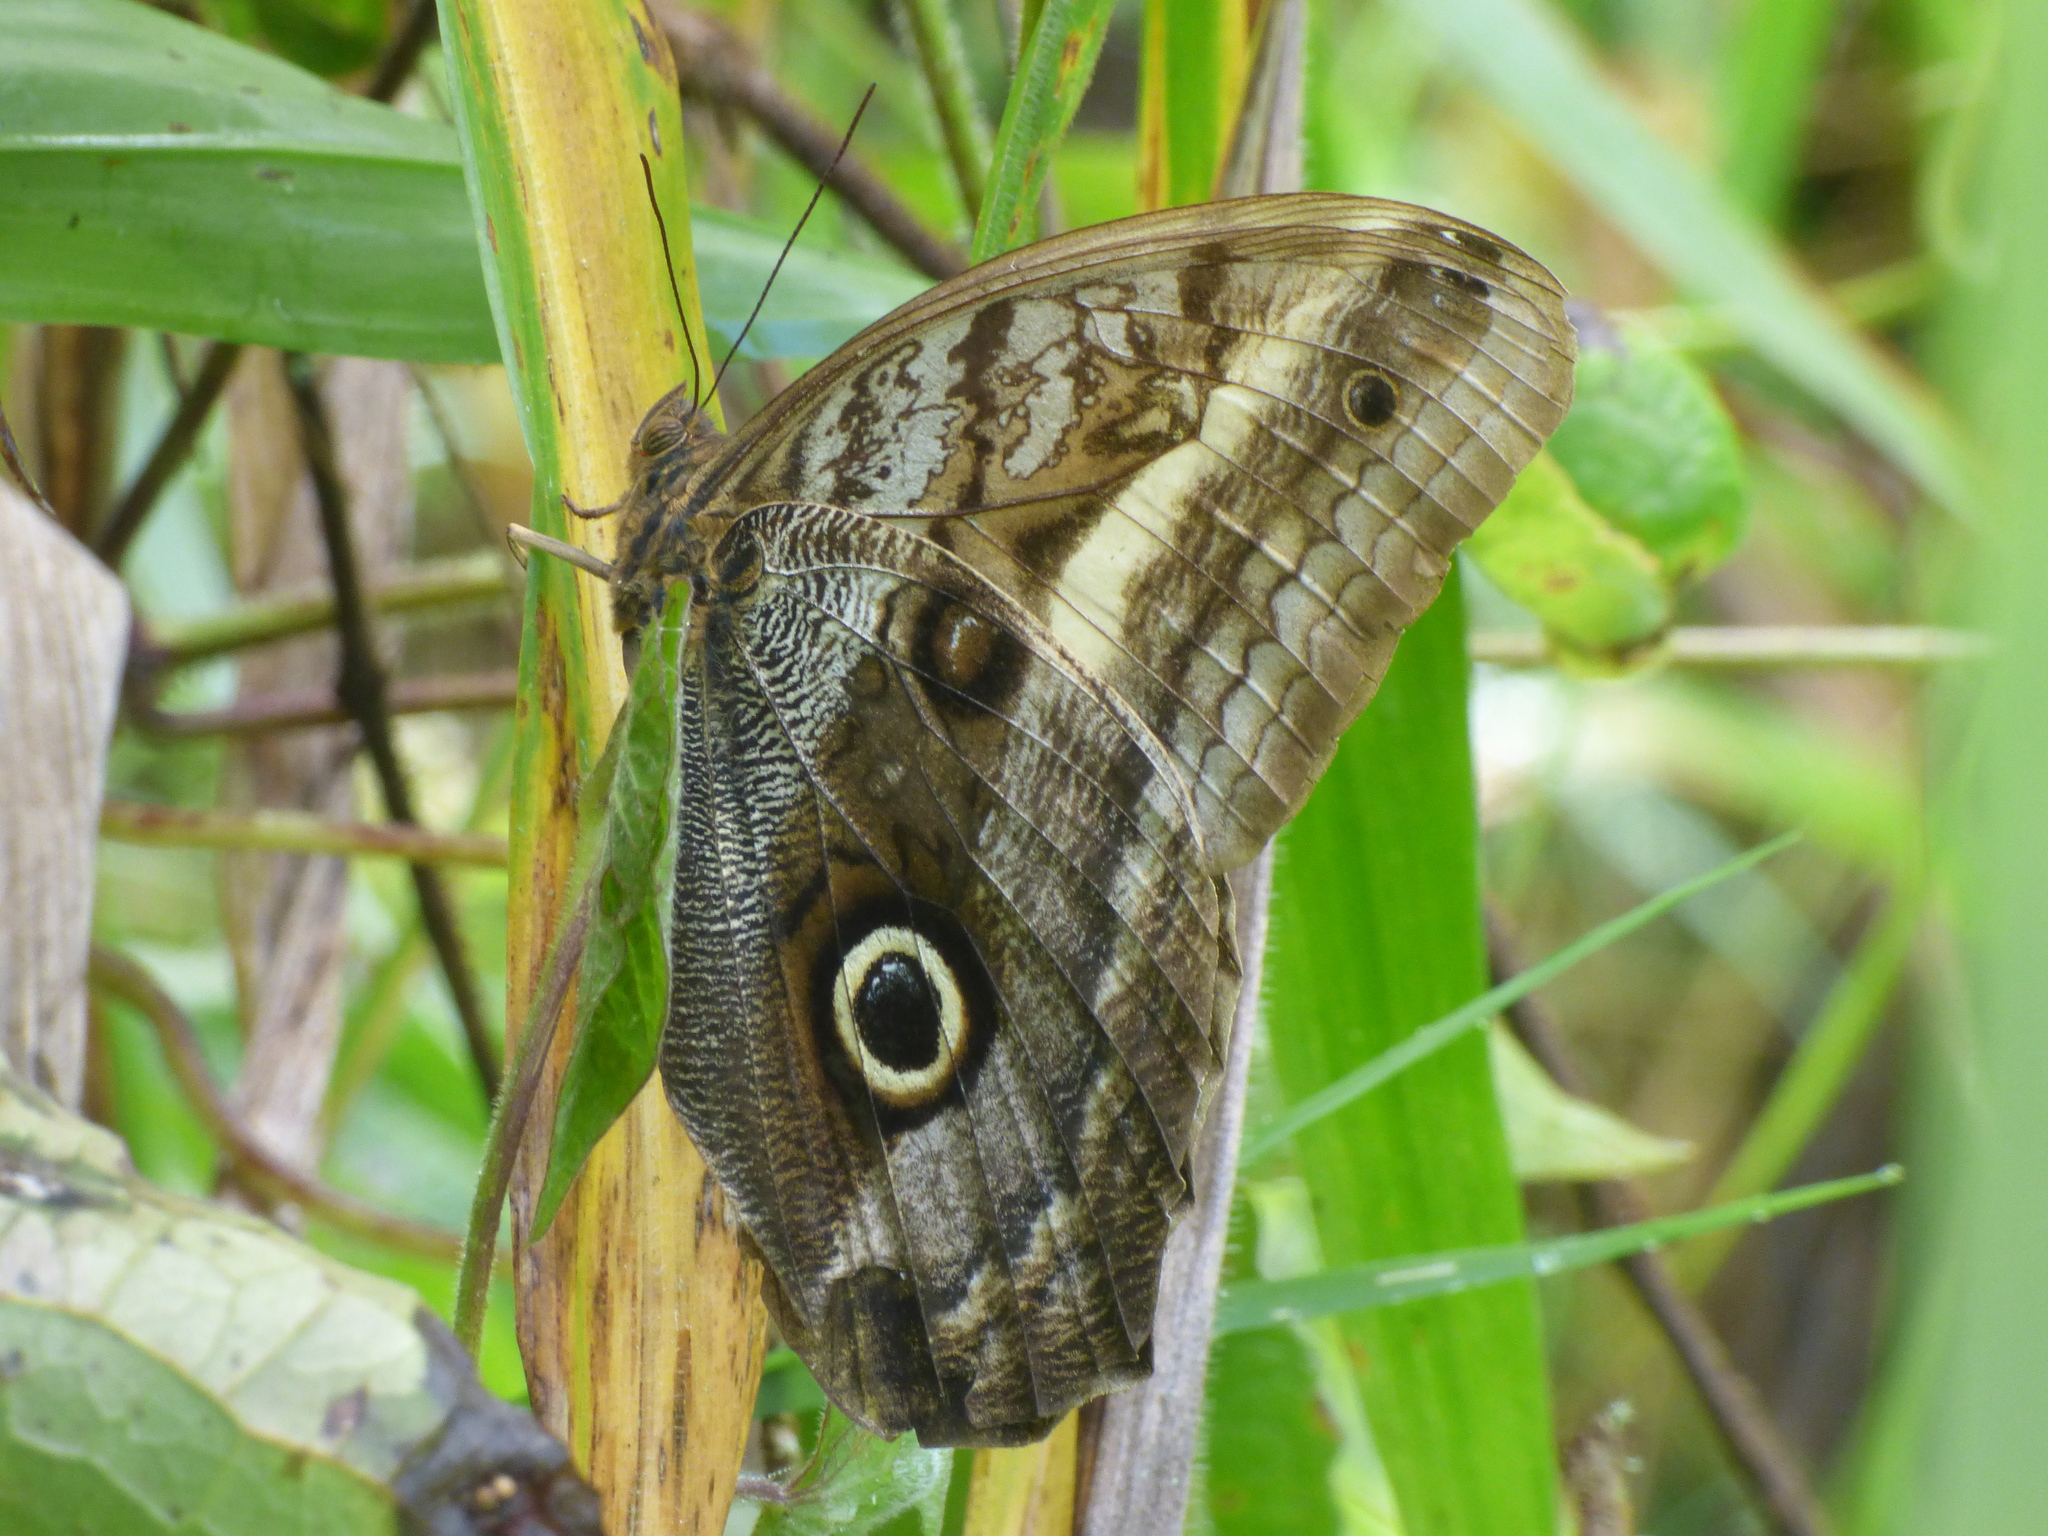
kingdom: Animalia
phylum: Arthropoda
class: Insecta
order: Lepidoptera
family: Nymphalidae
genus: Caligo
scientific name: Caligo oedipus
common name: Fruhstorfer's owl-butterfly
